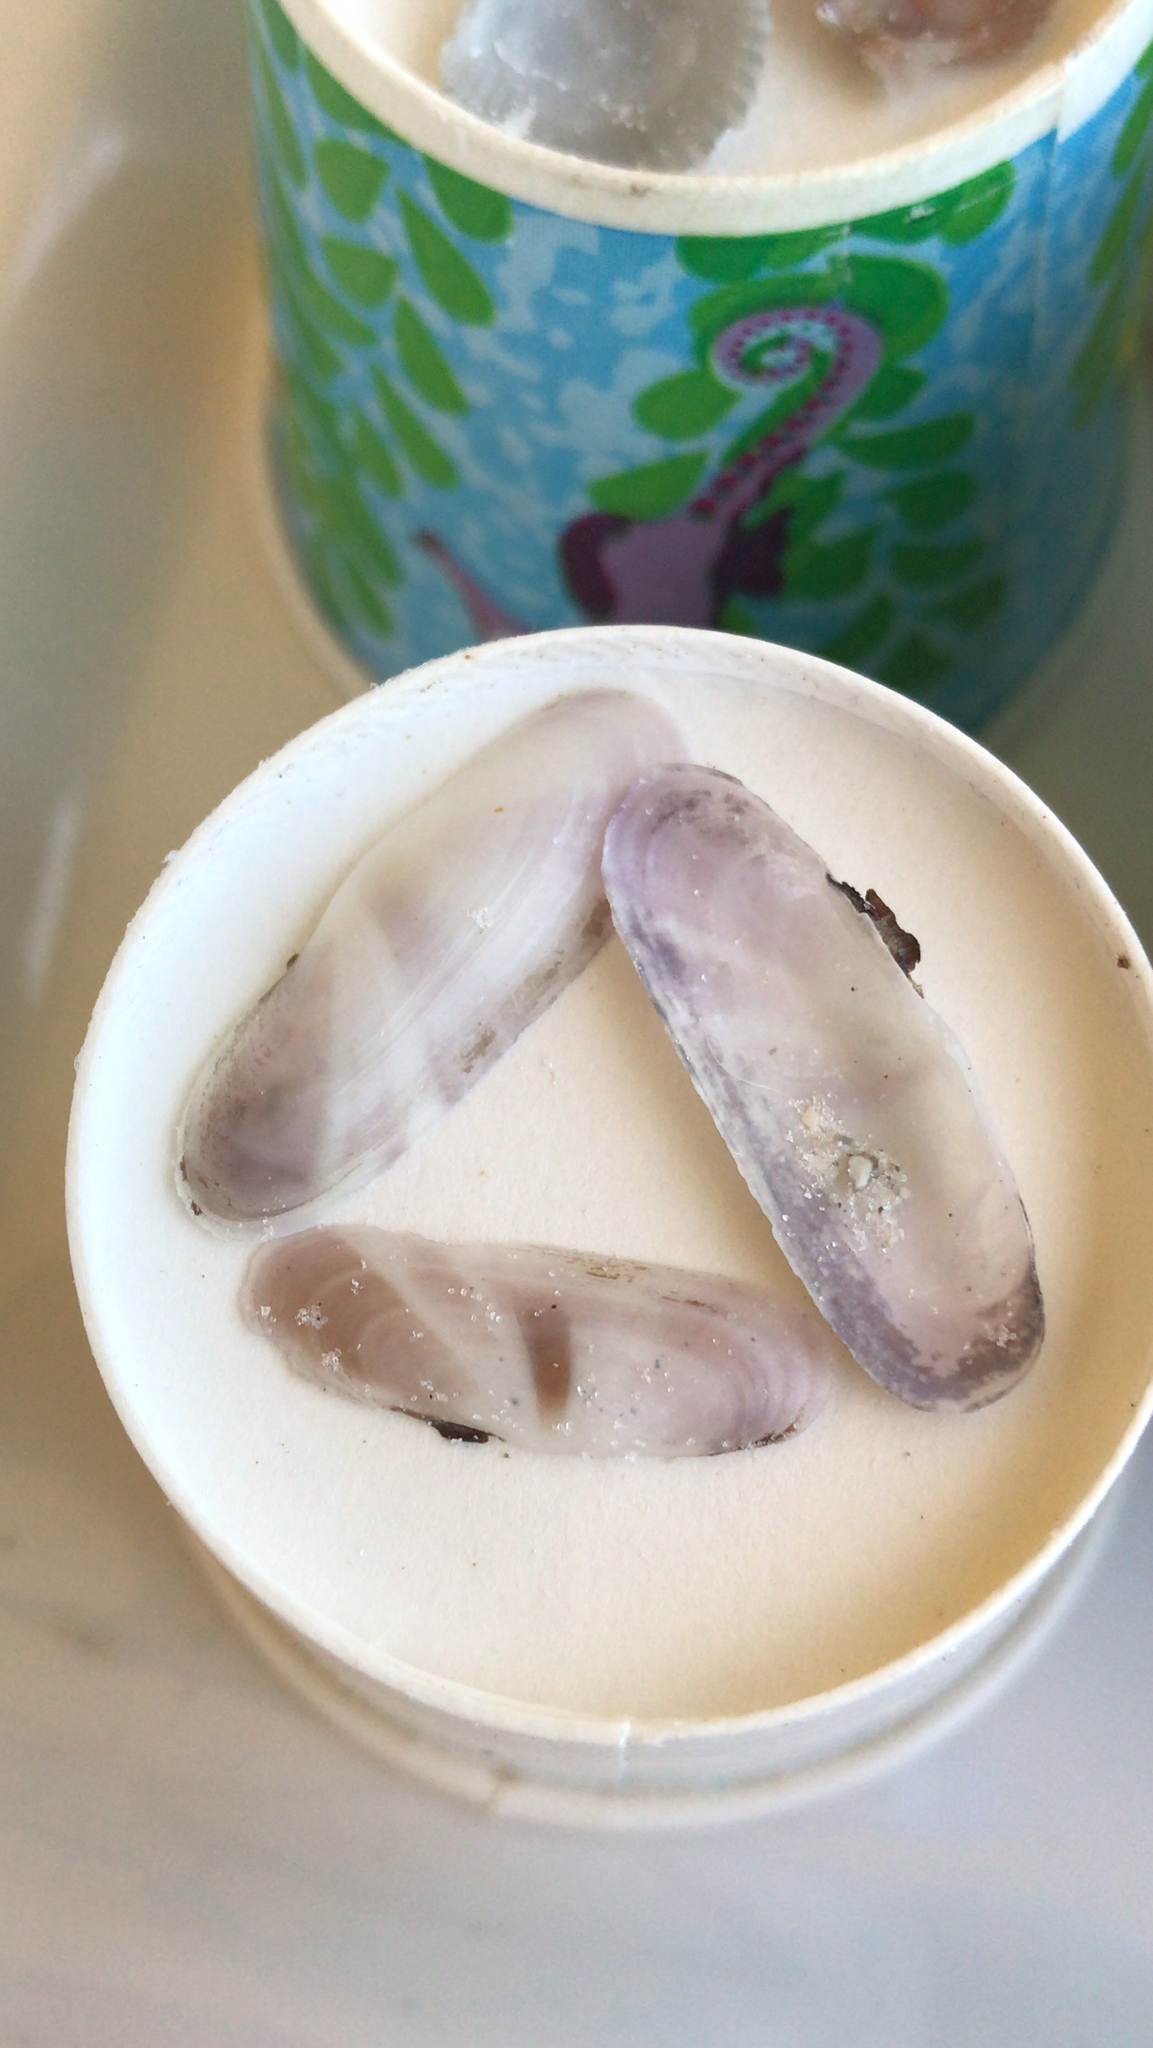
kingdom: Animalia
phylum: Mollusca
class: Bivalvia
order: Cardiida
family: Solecurtidae
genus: Tagelus
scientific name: Tagelus divisus
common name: Purplish tagelus
